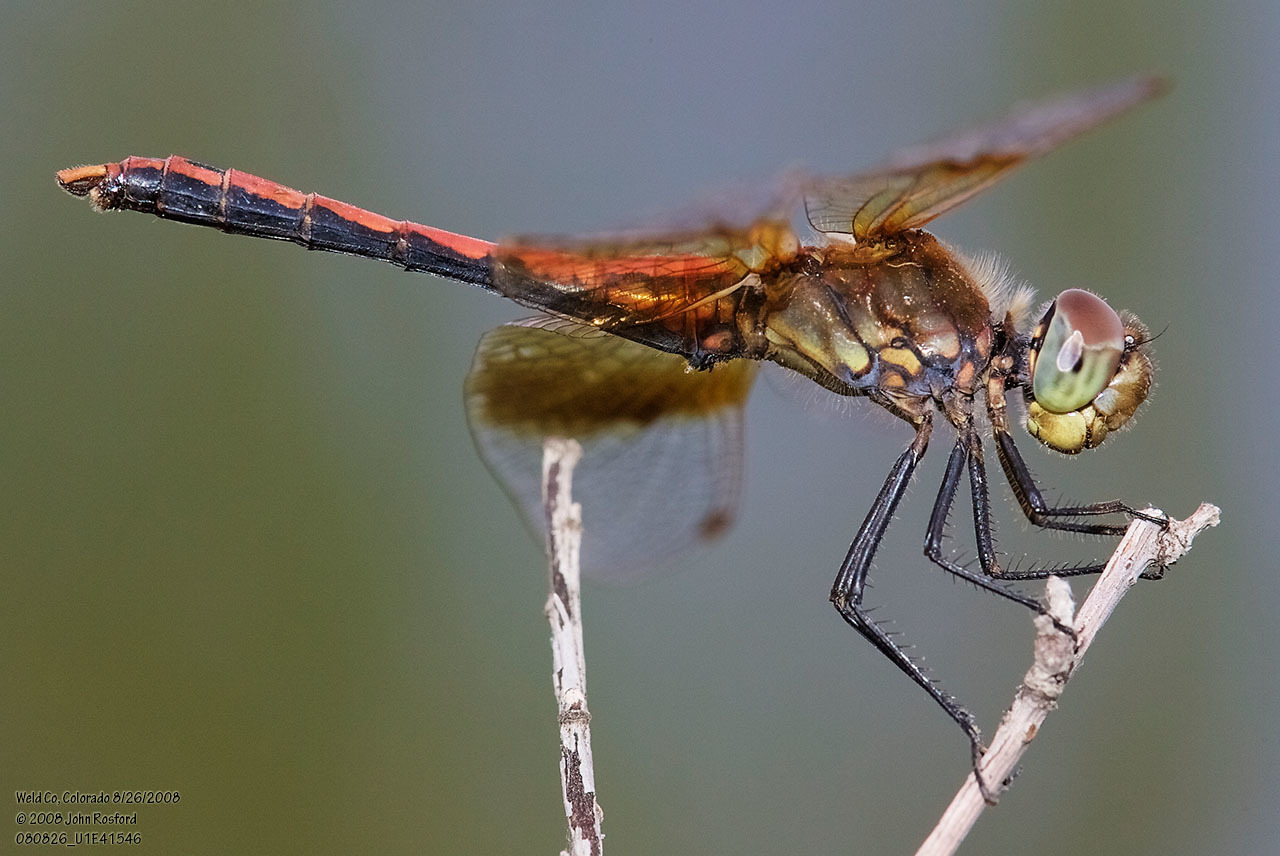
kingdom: Animalia
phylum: Arthropoda
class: Insecta
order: Odonata
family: Libellulidae
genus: Sympetrum
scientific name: Sympetrum semicinctum
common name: Band-winged meadowhawk
